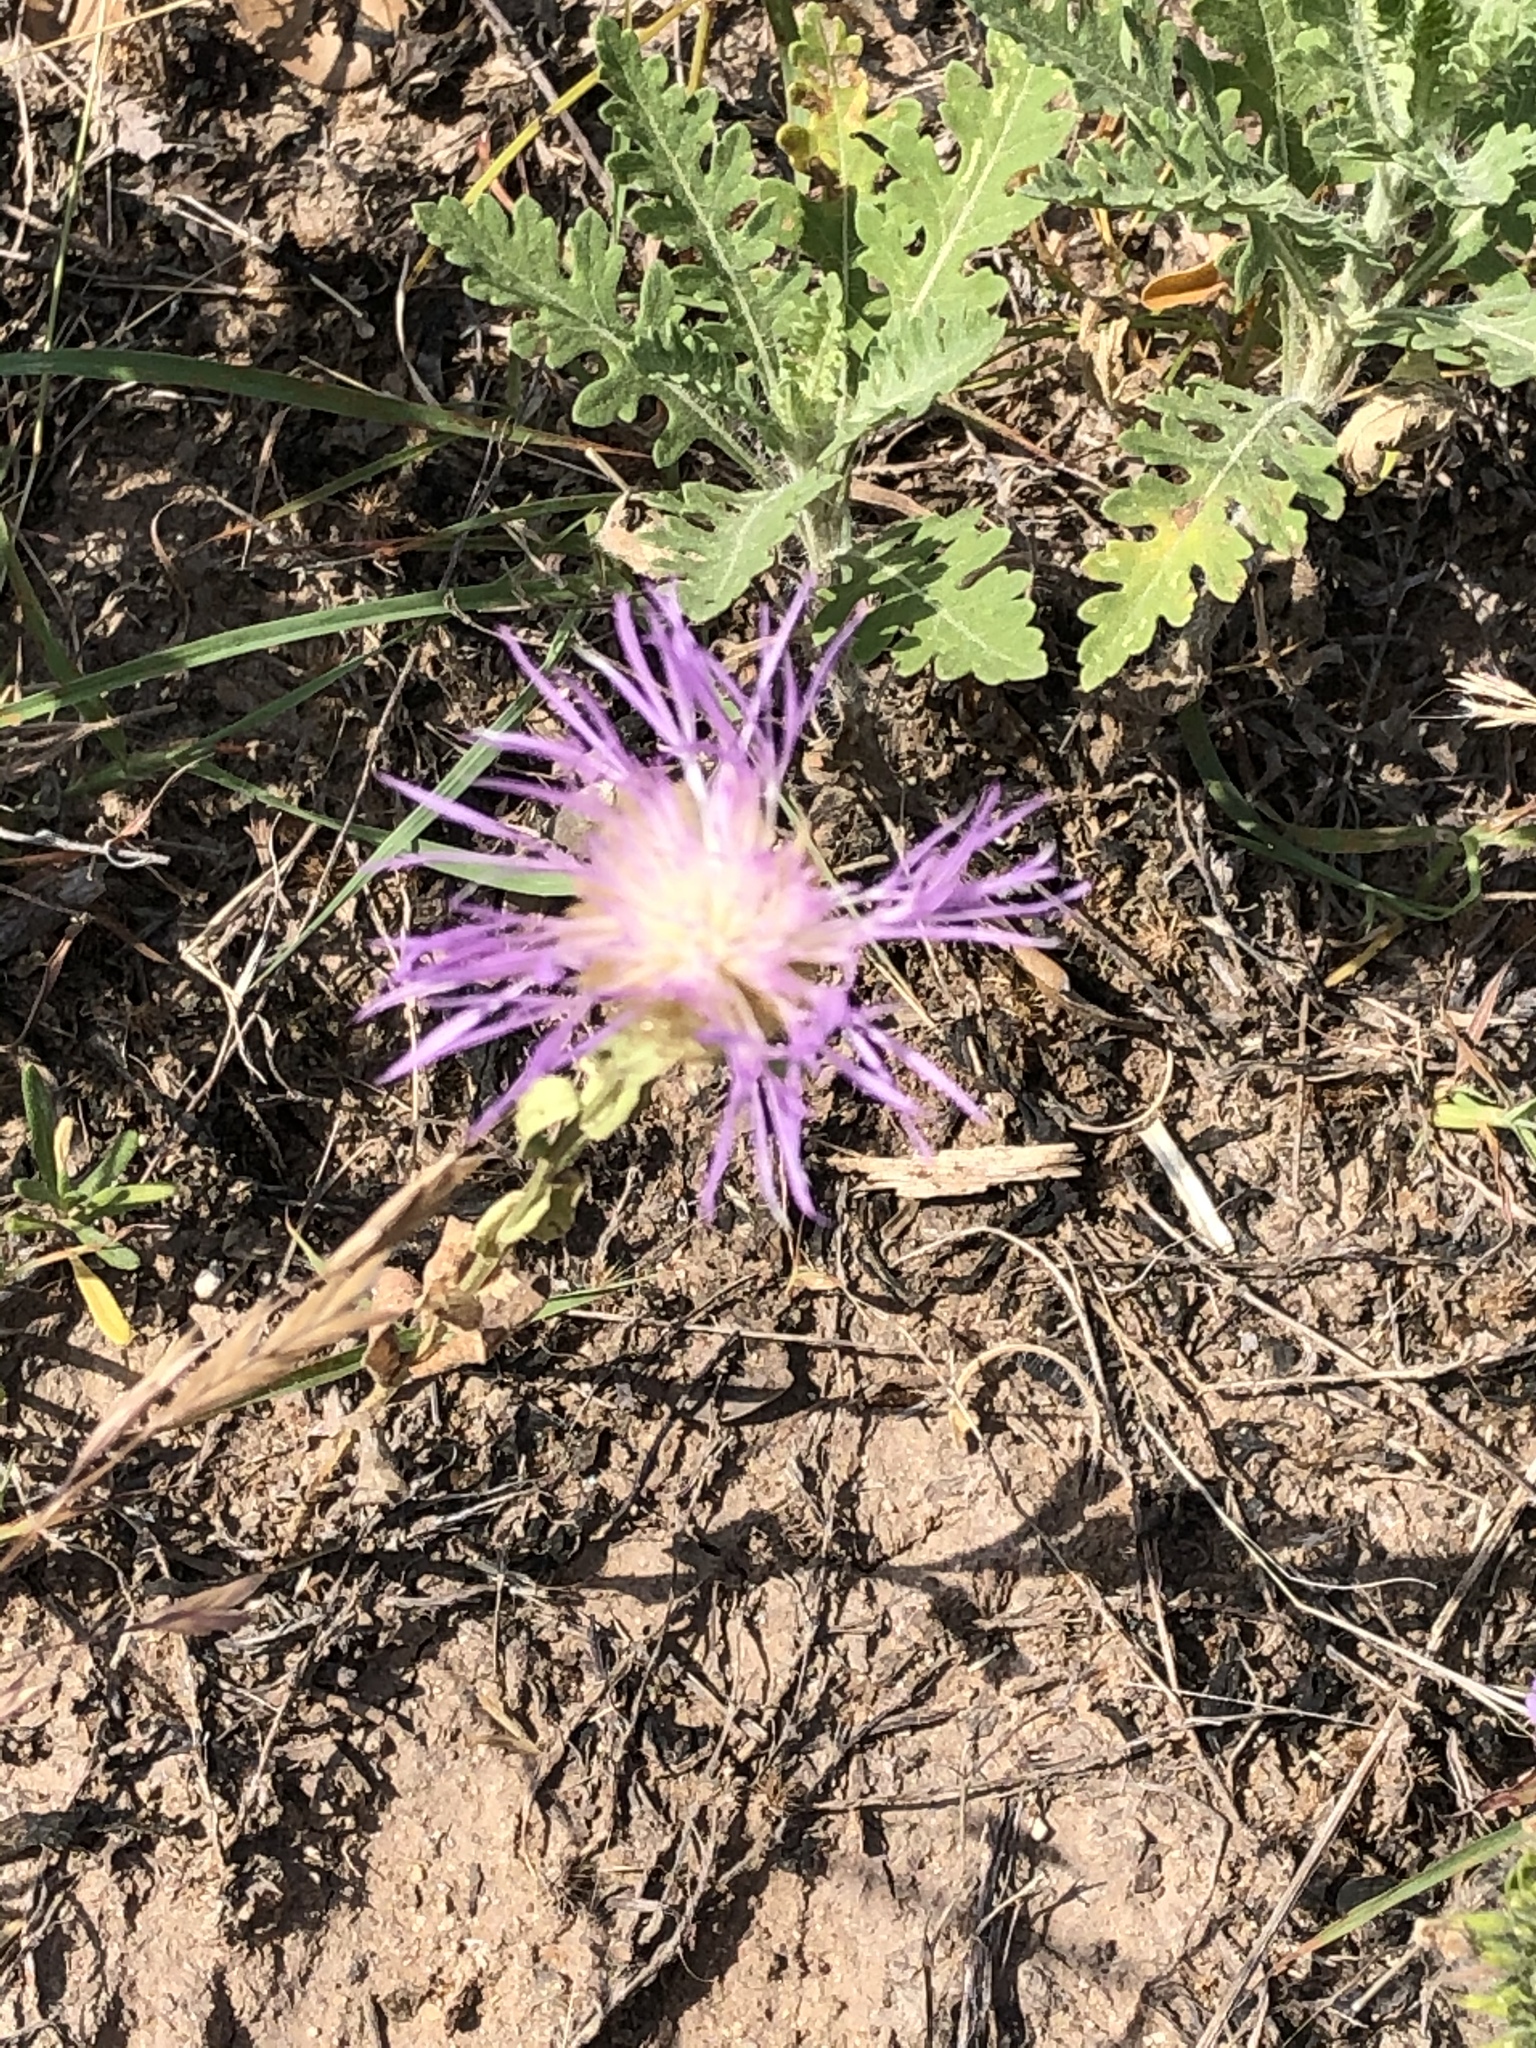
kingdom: Plantae
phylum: Tracheophyta
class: Magnoliopsida
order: Asterales
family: Asteraceae
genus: Plectocephalus
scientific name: Plectocephalus americanus
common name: American basket-flower
